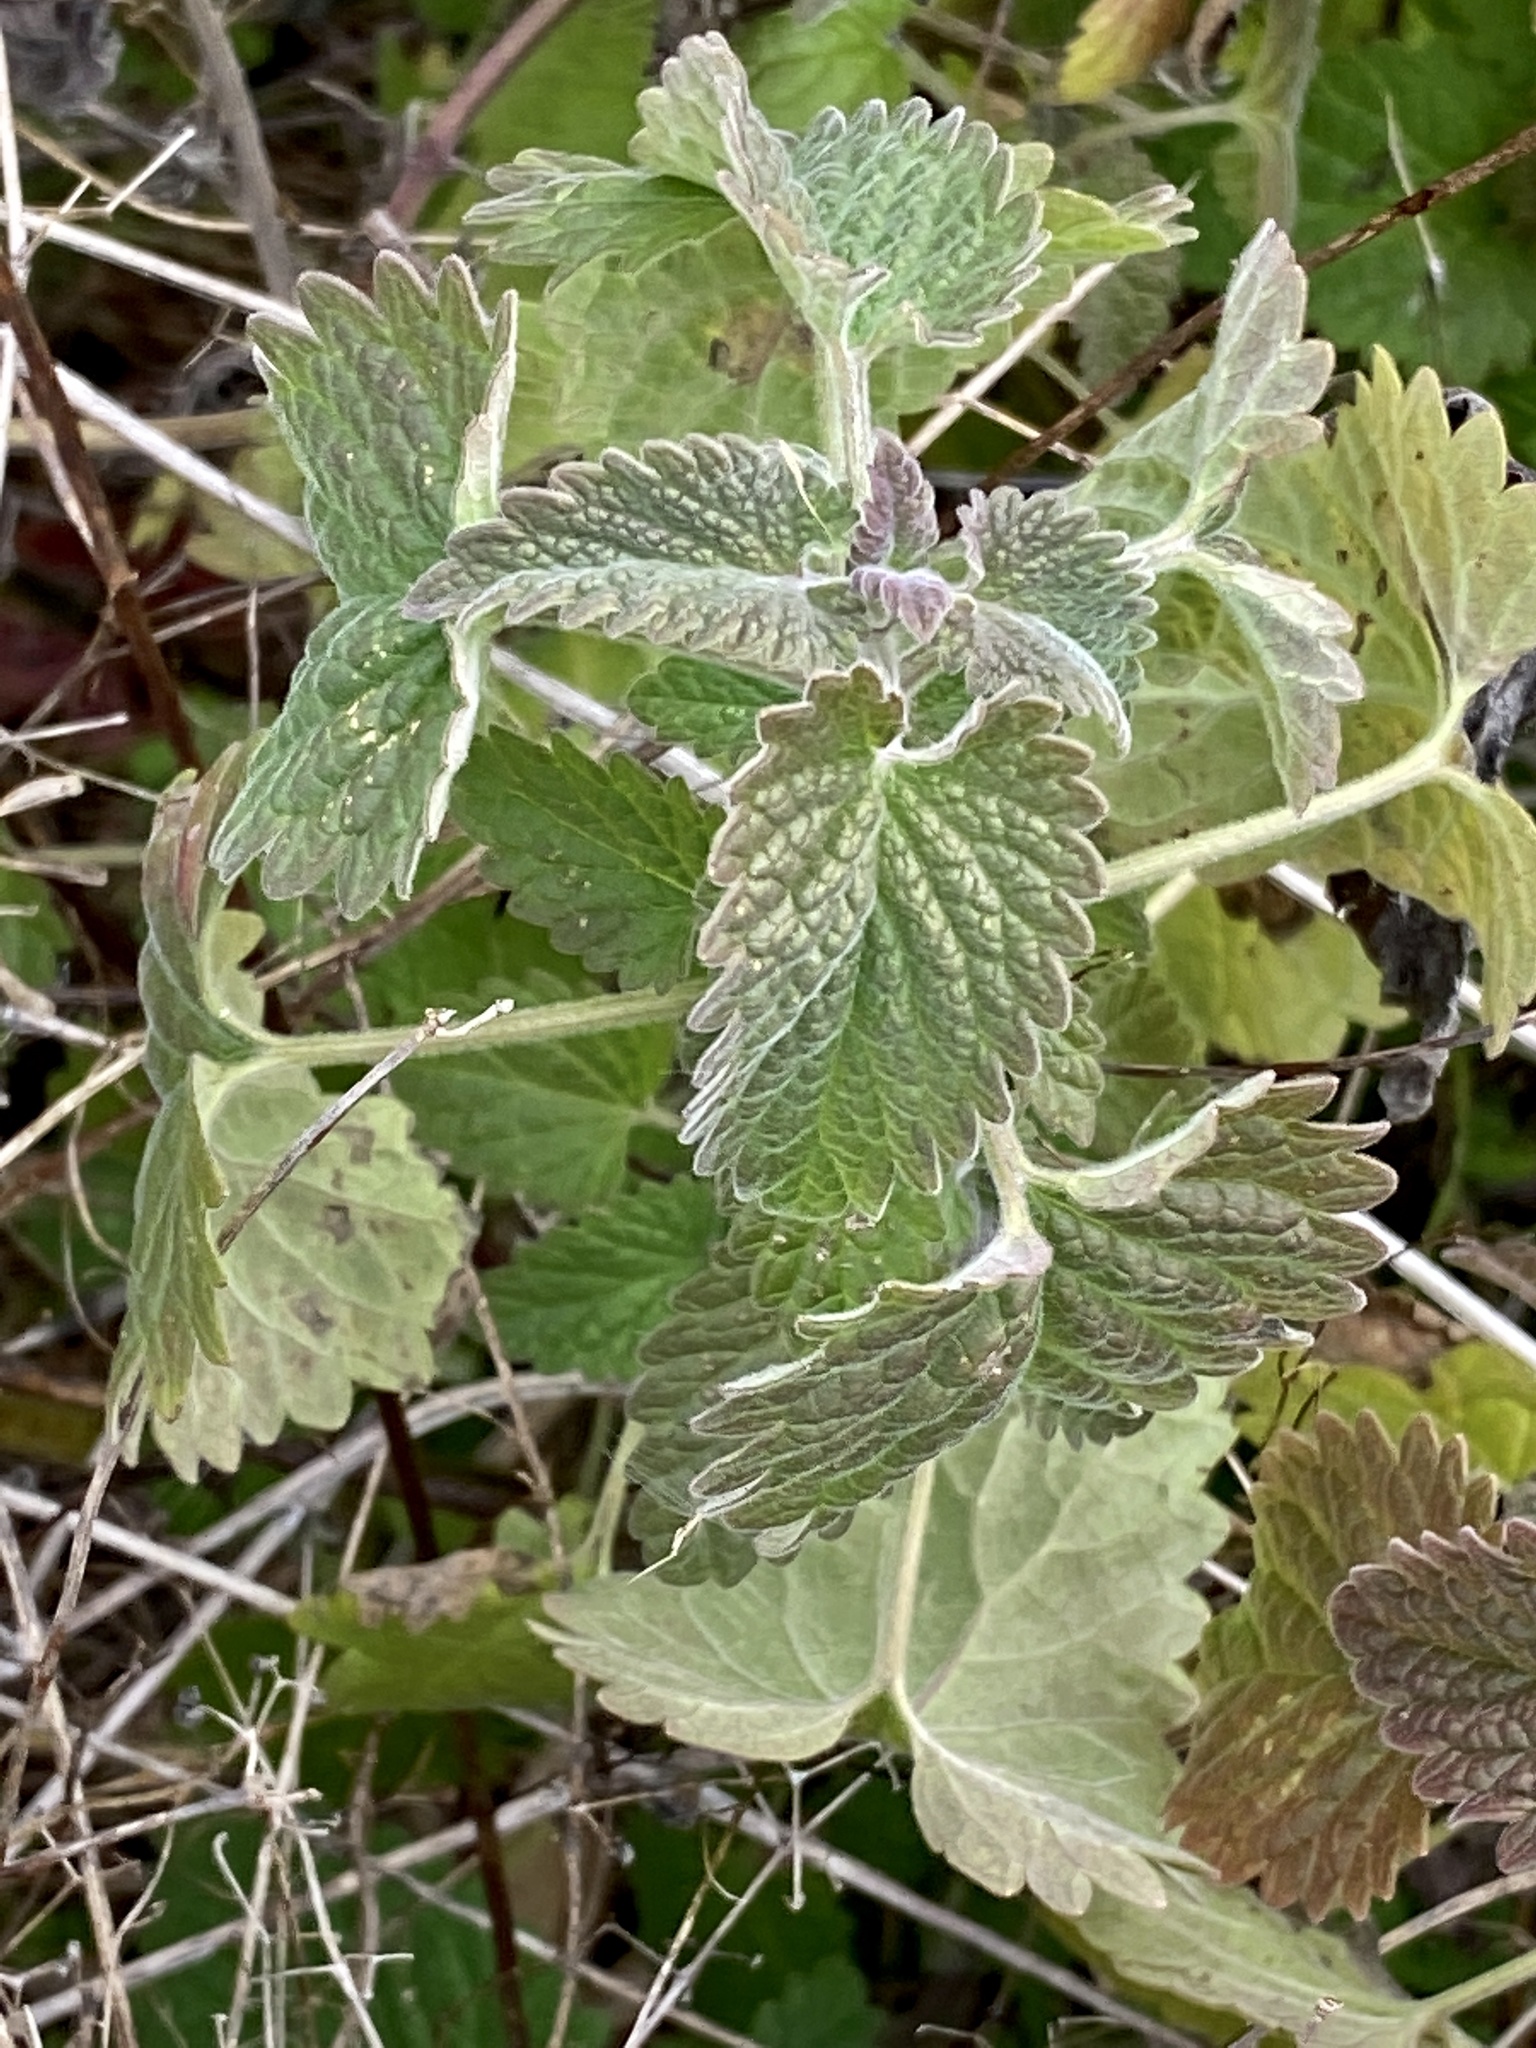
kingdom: Plantae
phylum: Tracheophyta
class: Magnoliopsida
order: Lamiales
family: Lamiaceae
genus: Nepeta
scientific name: Nepeta cataria
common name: Catnip
